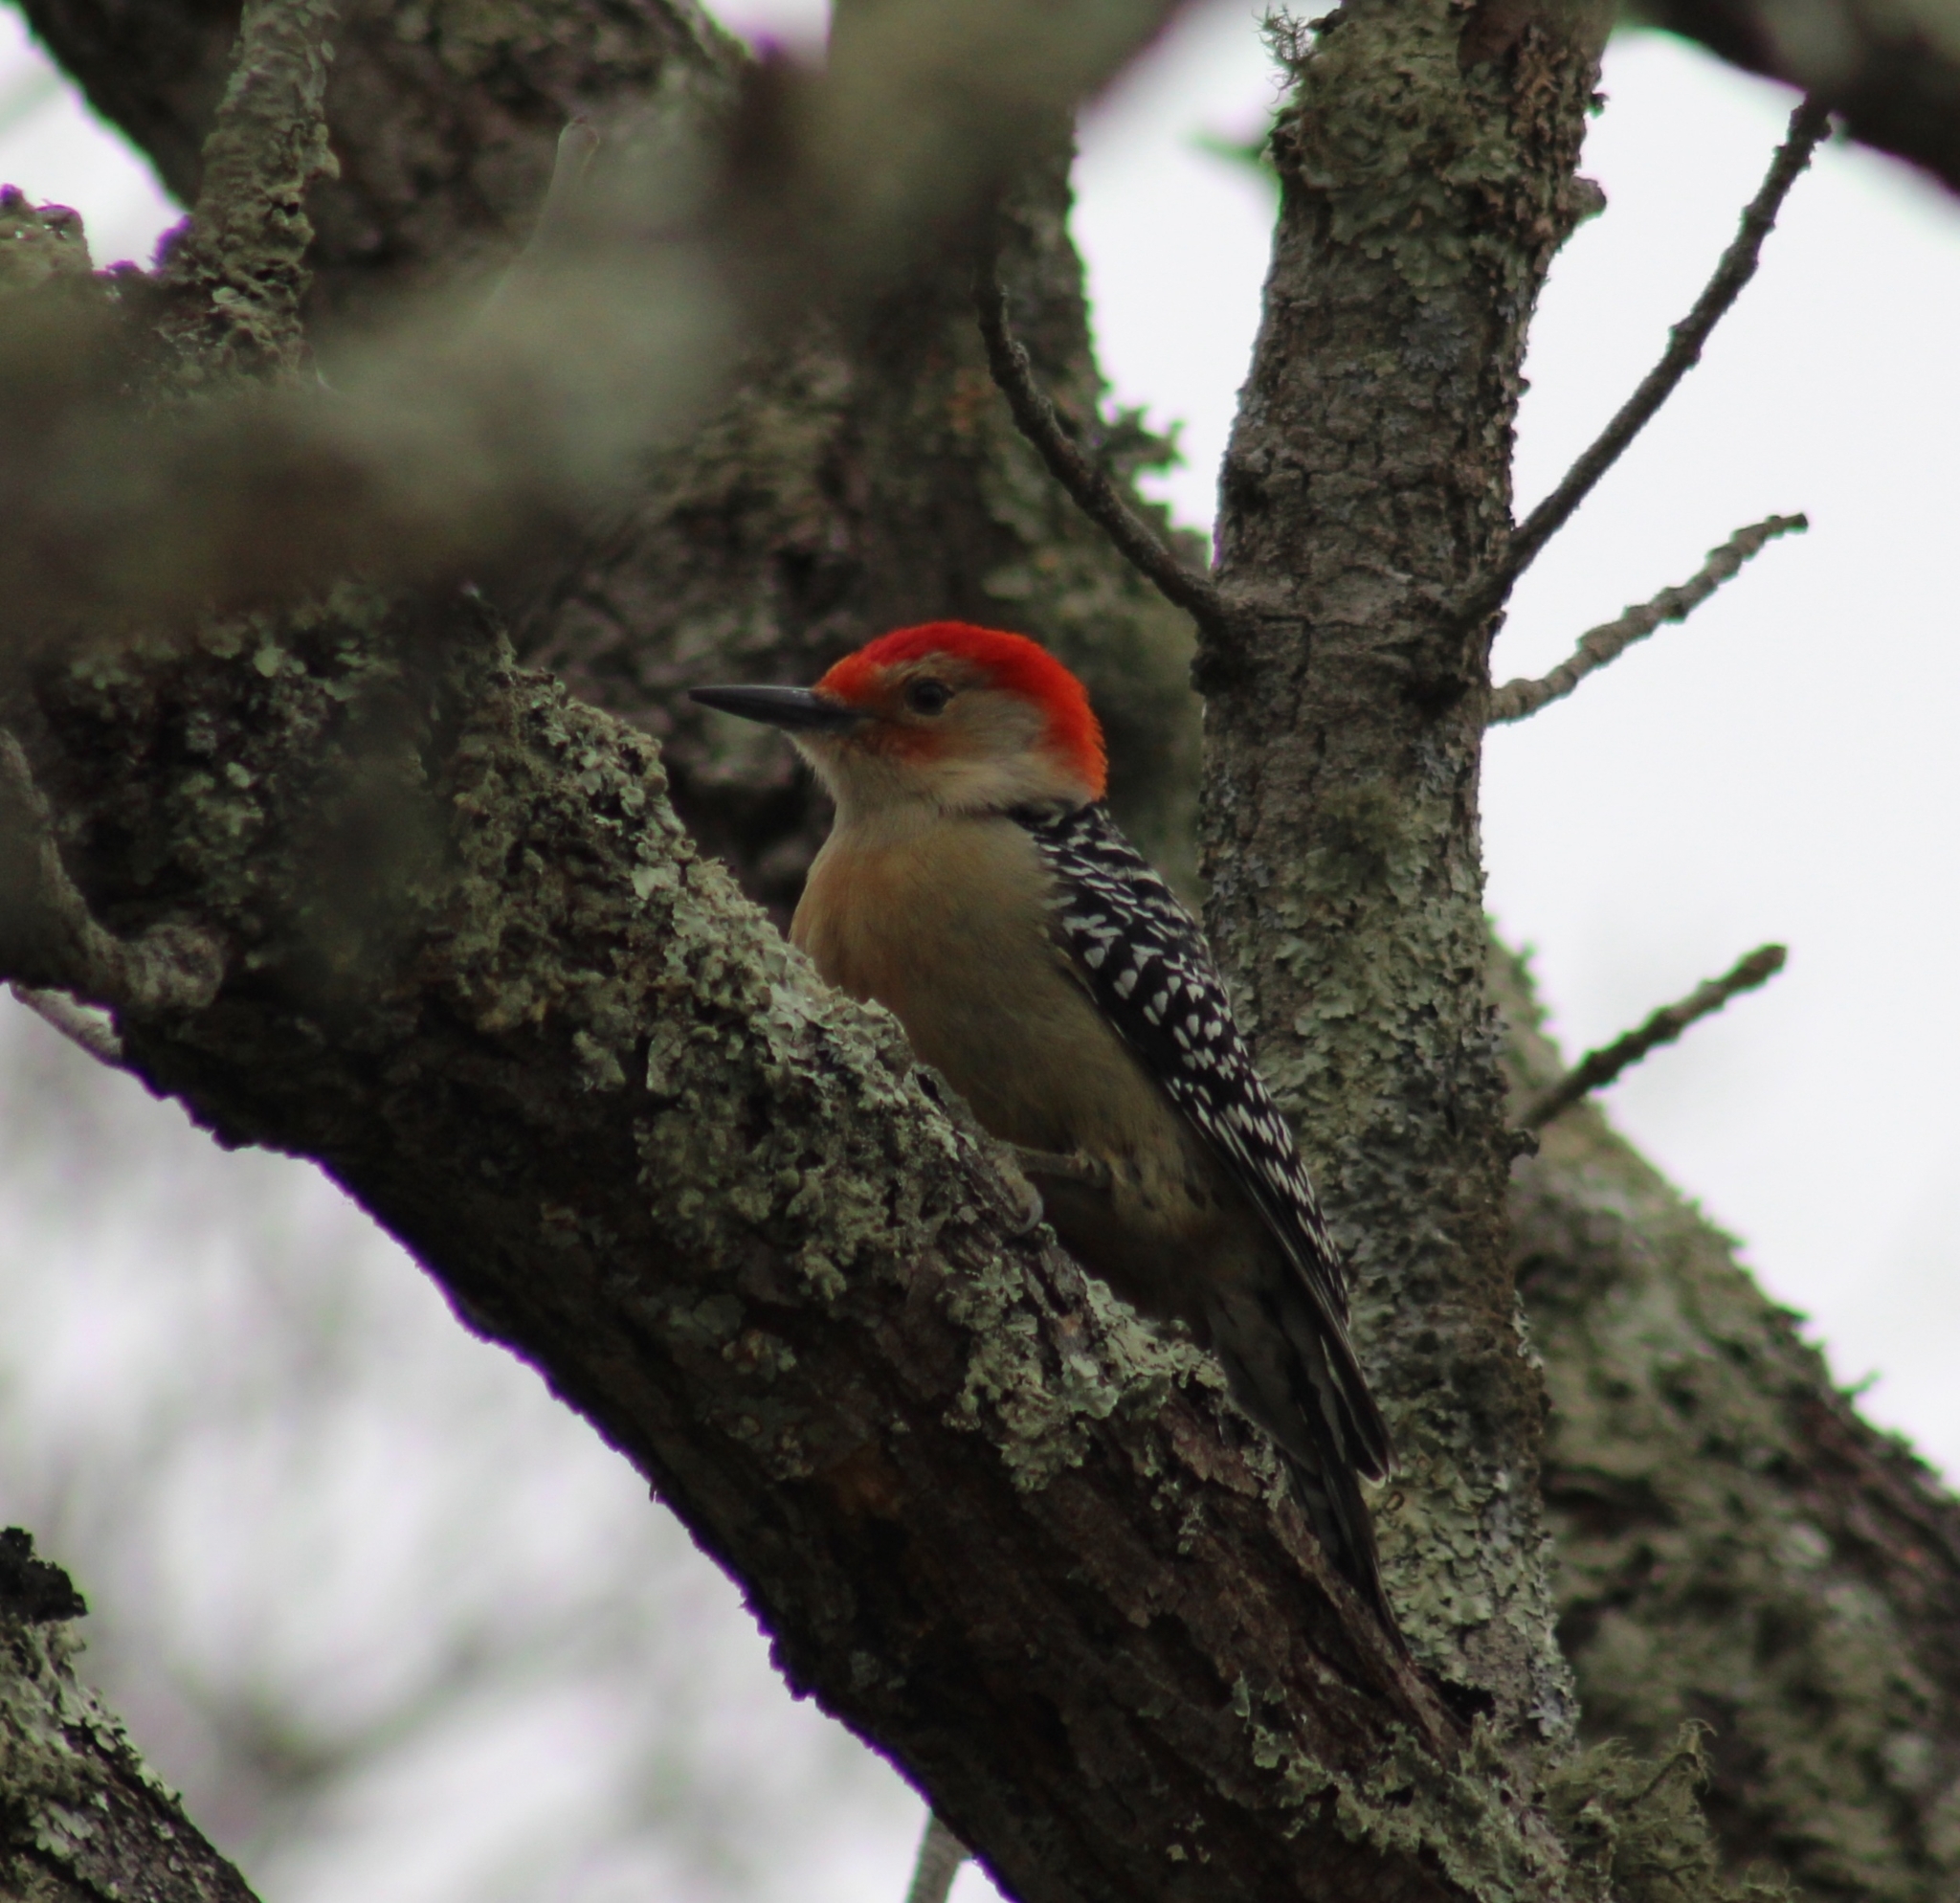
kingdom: Animalia
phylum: Chordata
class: Aves
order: Piciformes
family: Picidae
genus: Melanerpes
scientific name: Melanerpes carolinus
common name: Red-bellied woodpecker
